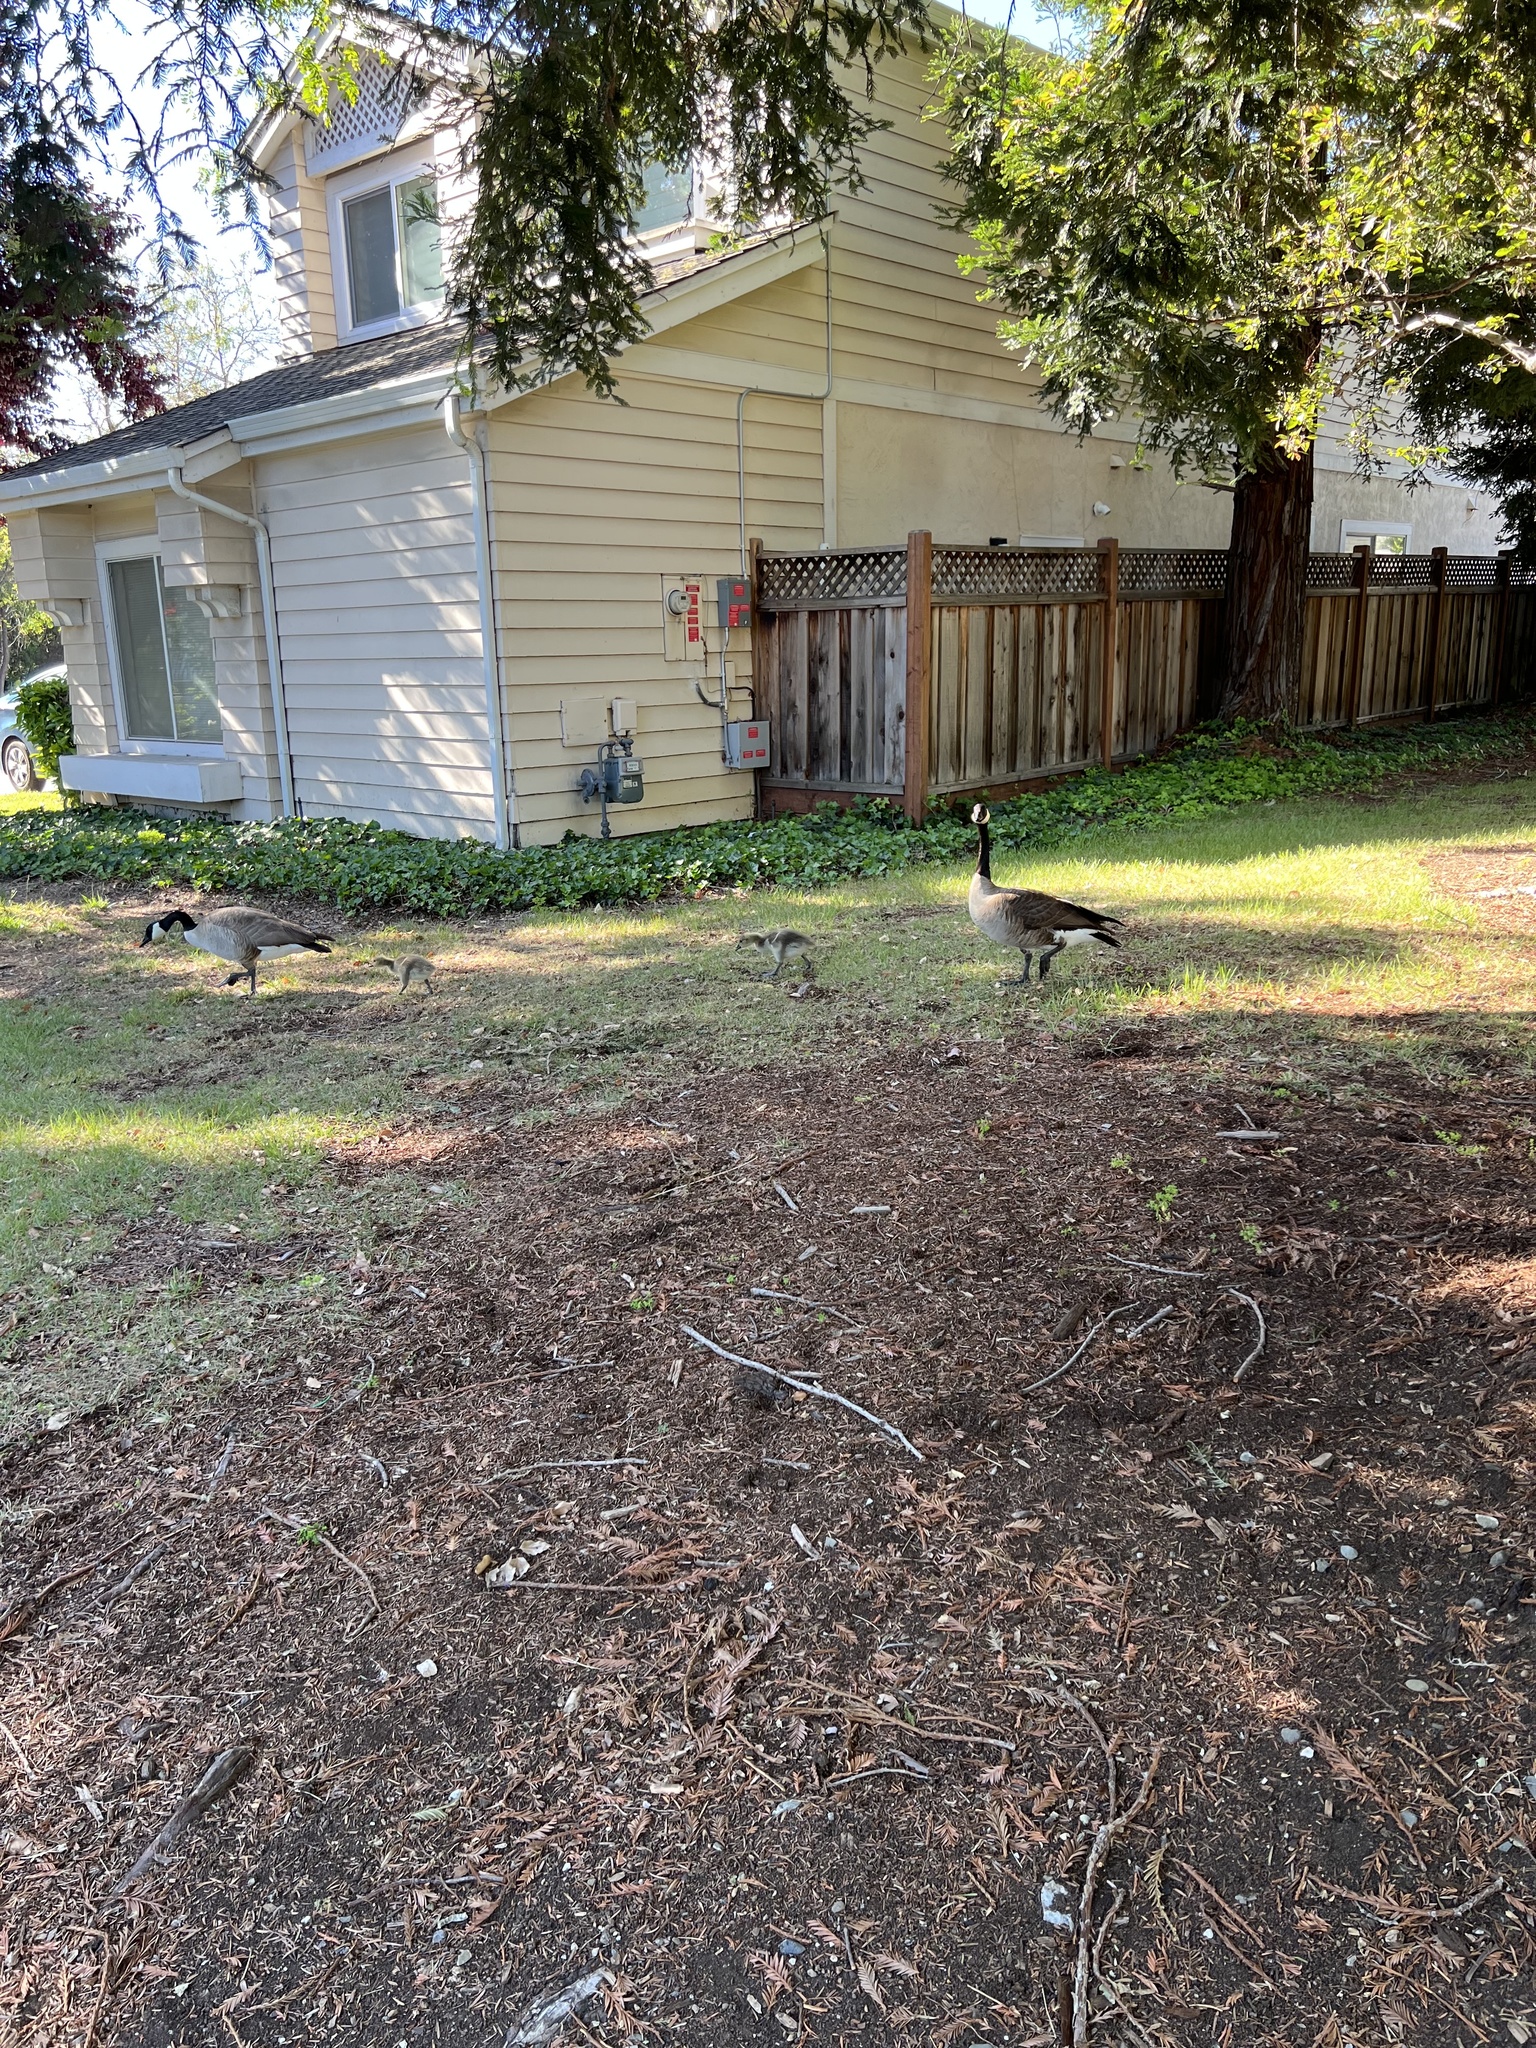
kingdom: Animalia
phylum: Chordata
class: Aves
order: Anseriformes
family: Anatidae
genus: Branta
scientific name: Branta canadensis
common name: Canada goose
